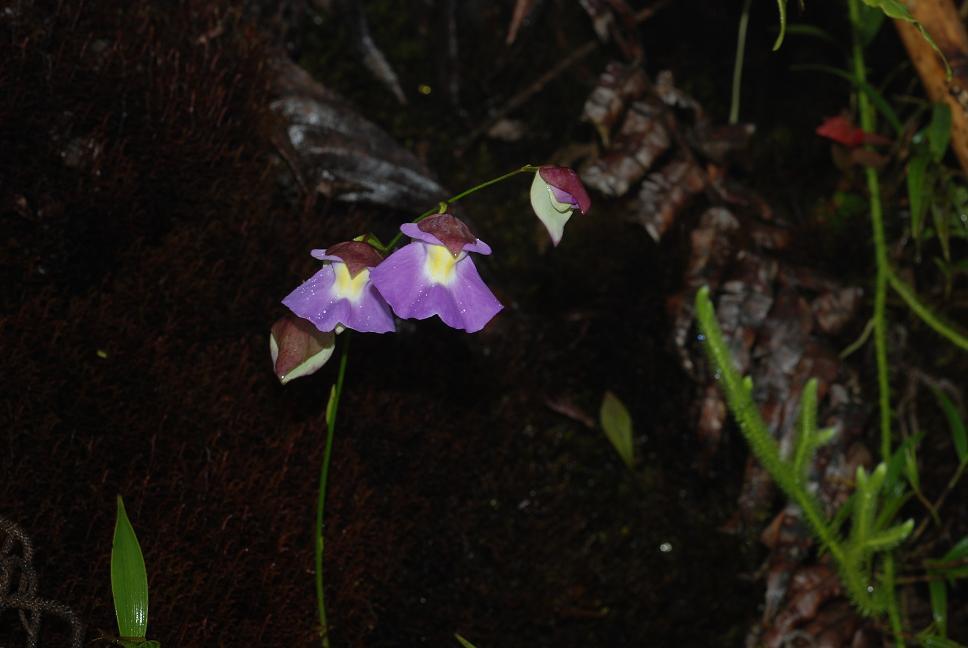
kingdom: Plantae
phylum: Tracheophyta
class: Magnoliopsida
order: Lamiales
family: Lentibulariaceae
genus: Utricularia
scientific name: Utricularia unifolia
